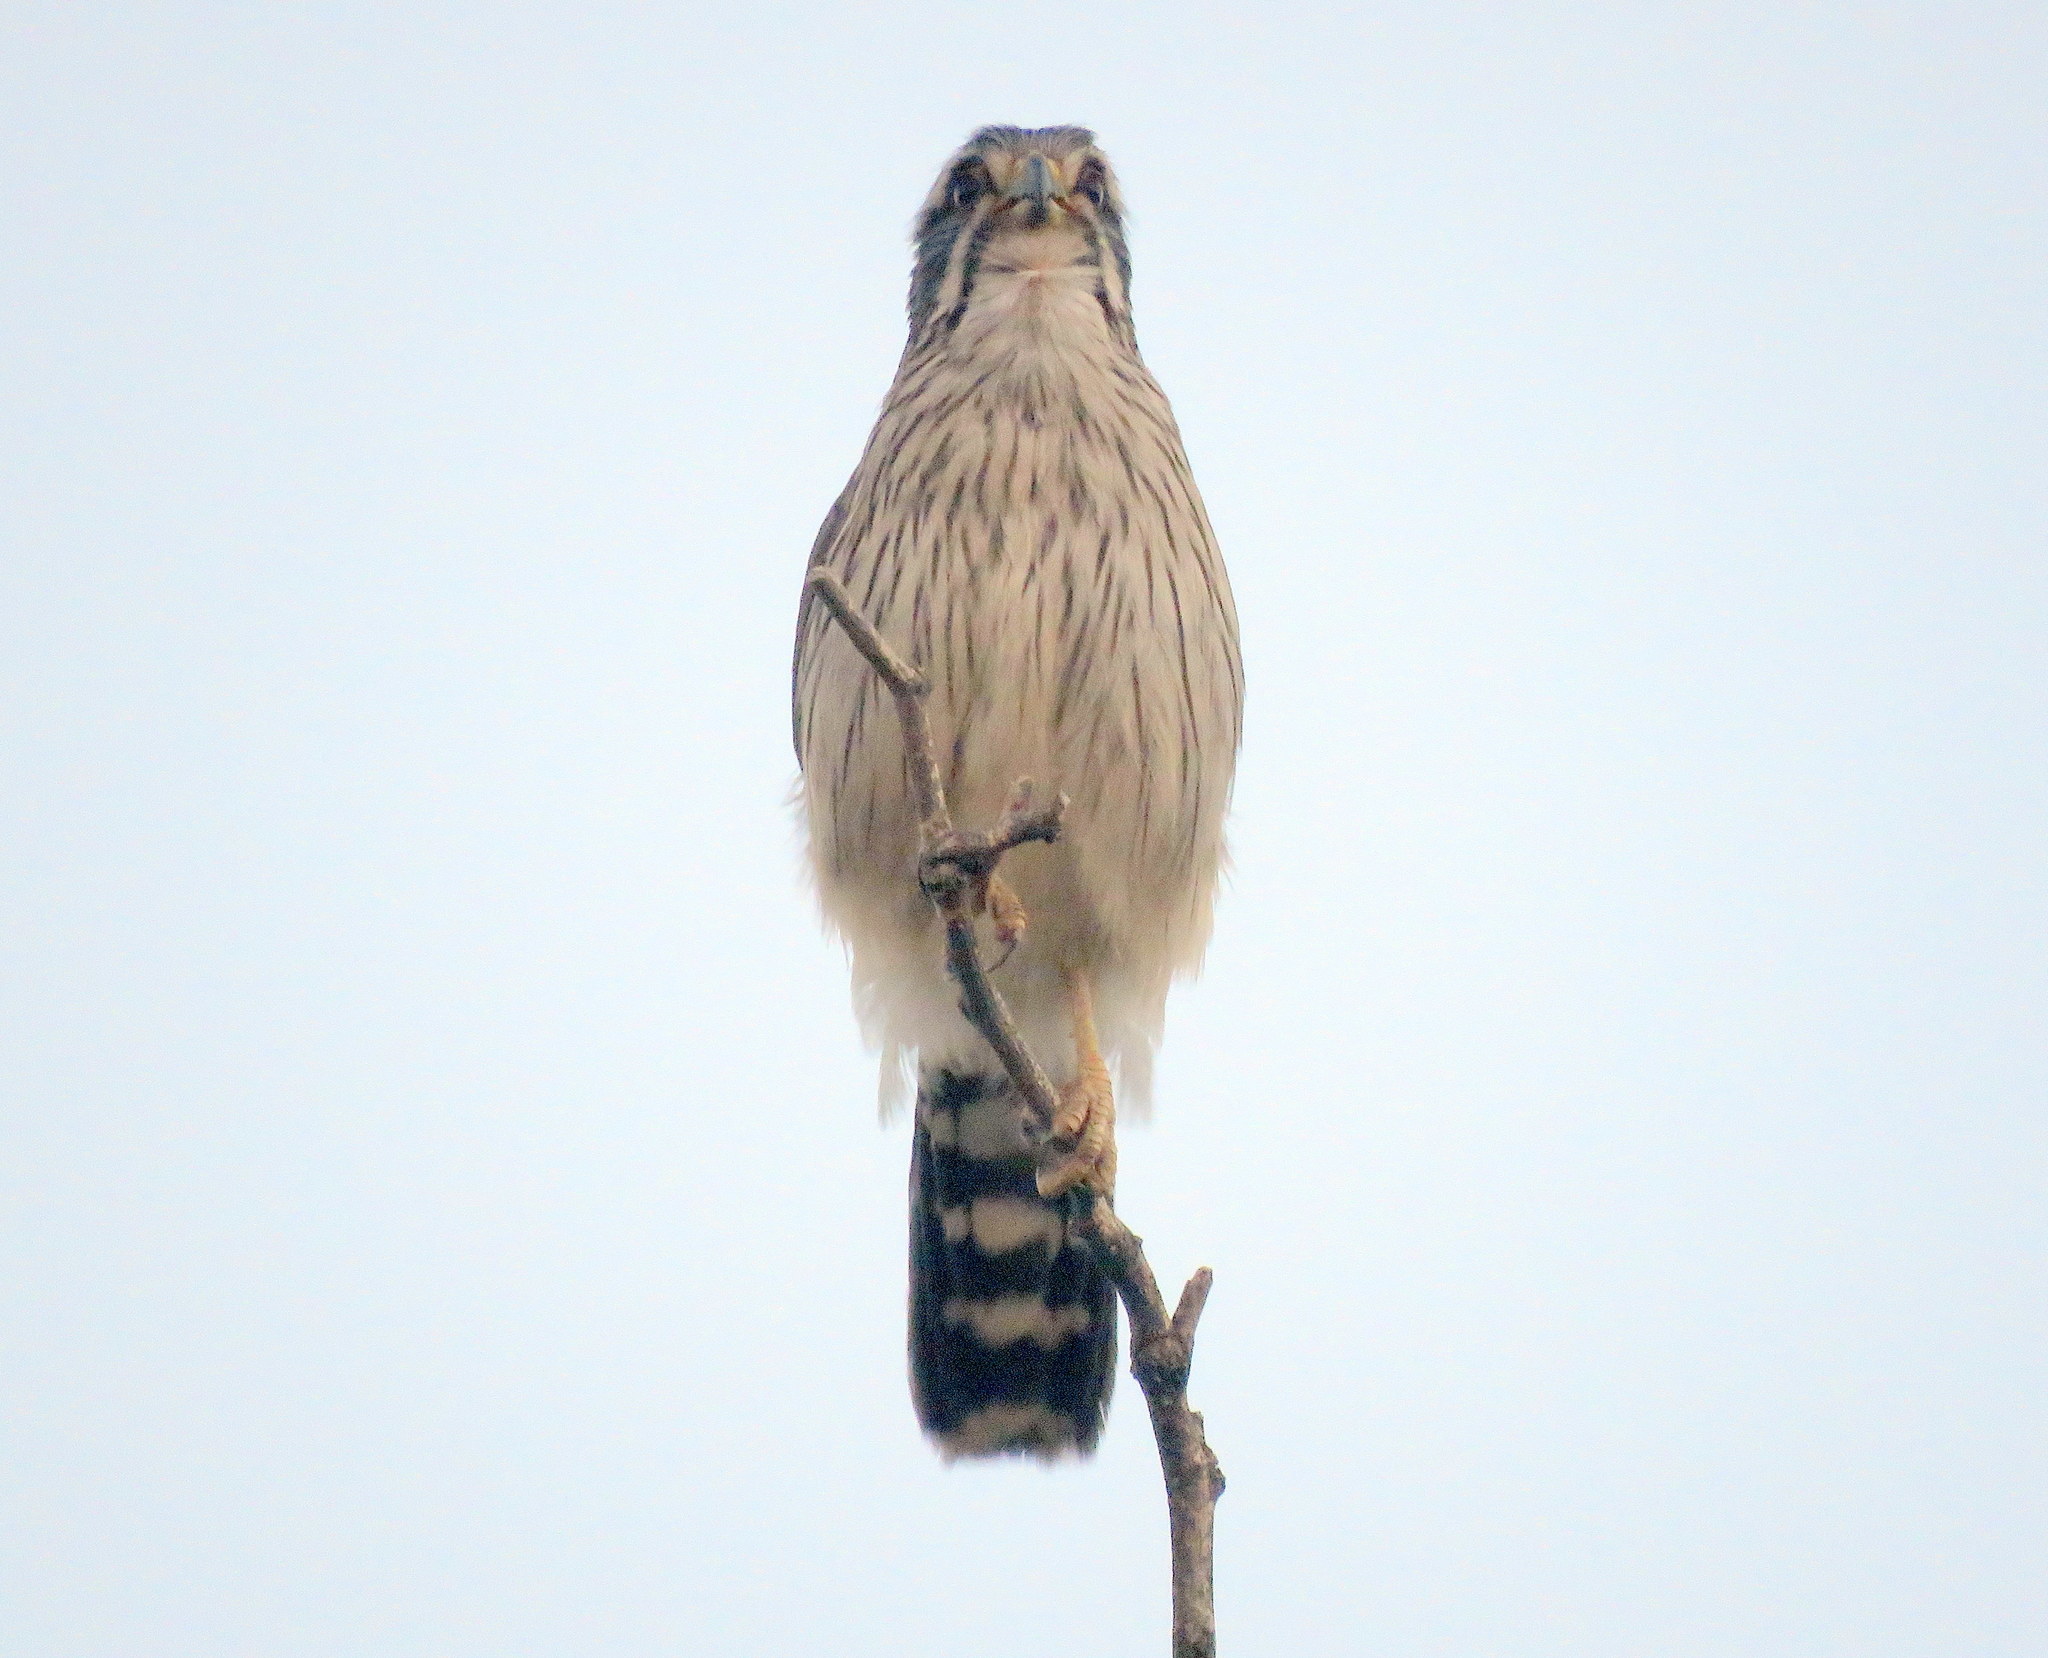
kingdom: Animalia
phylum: Chordata
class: Aves
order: Falconiformes
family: Falconidae
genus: Spiziapteryx
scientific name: Spiziapteryx circumcincta
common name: Spot-winged falconet
